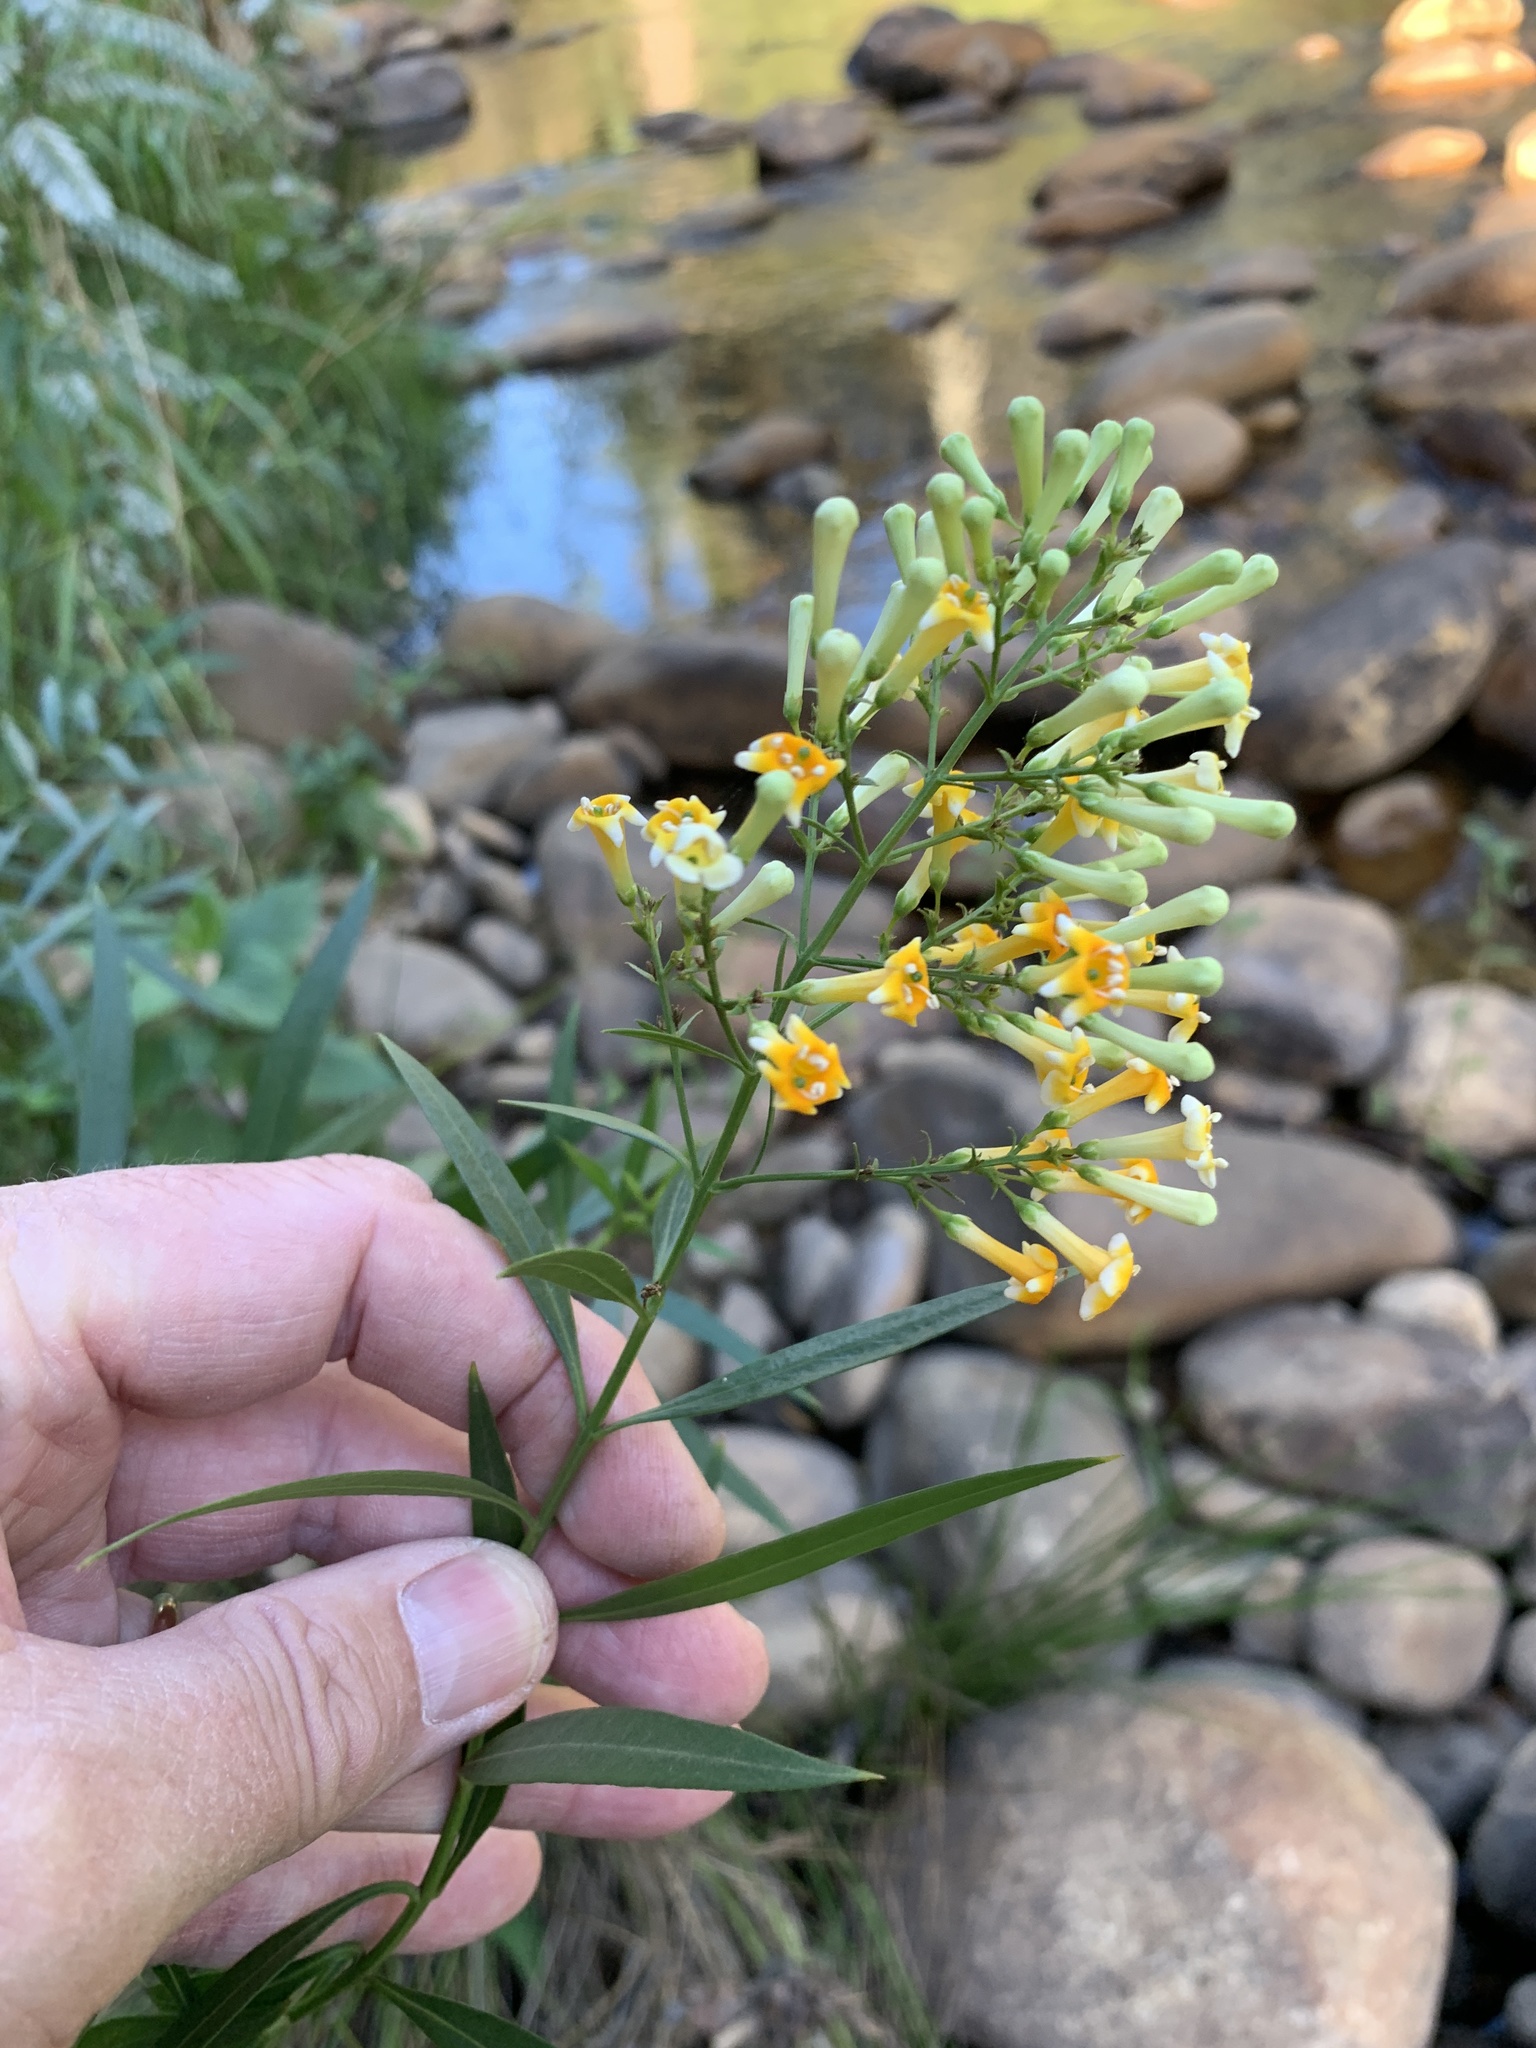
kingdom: Plantae
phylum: Tracheophyta
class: Magnoliopsida
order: Lamiales
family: Scrophulariaceae
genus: Freylinia
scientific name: Freylinia lanceolata
